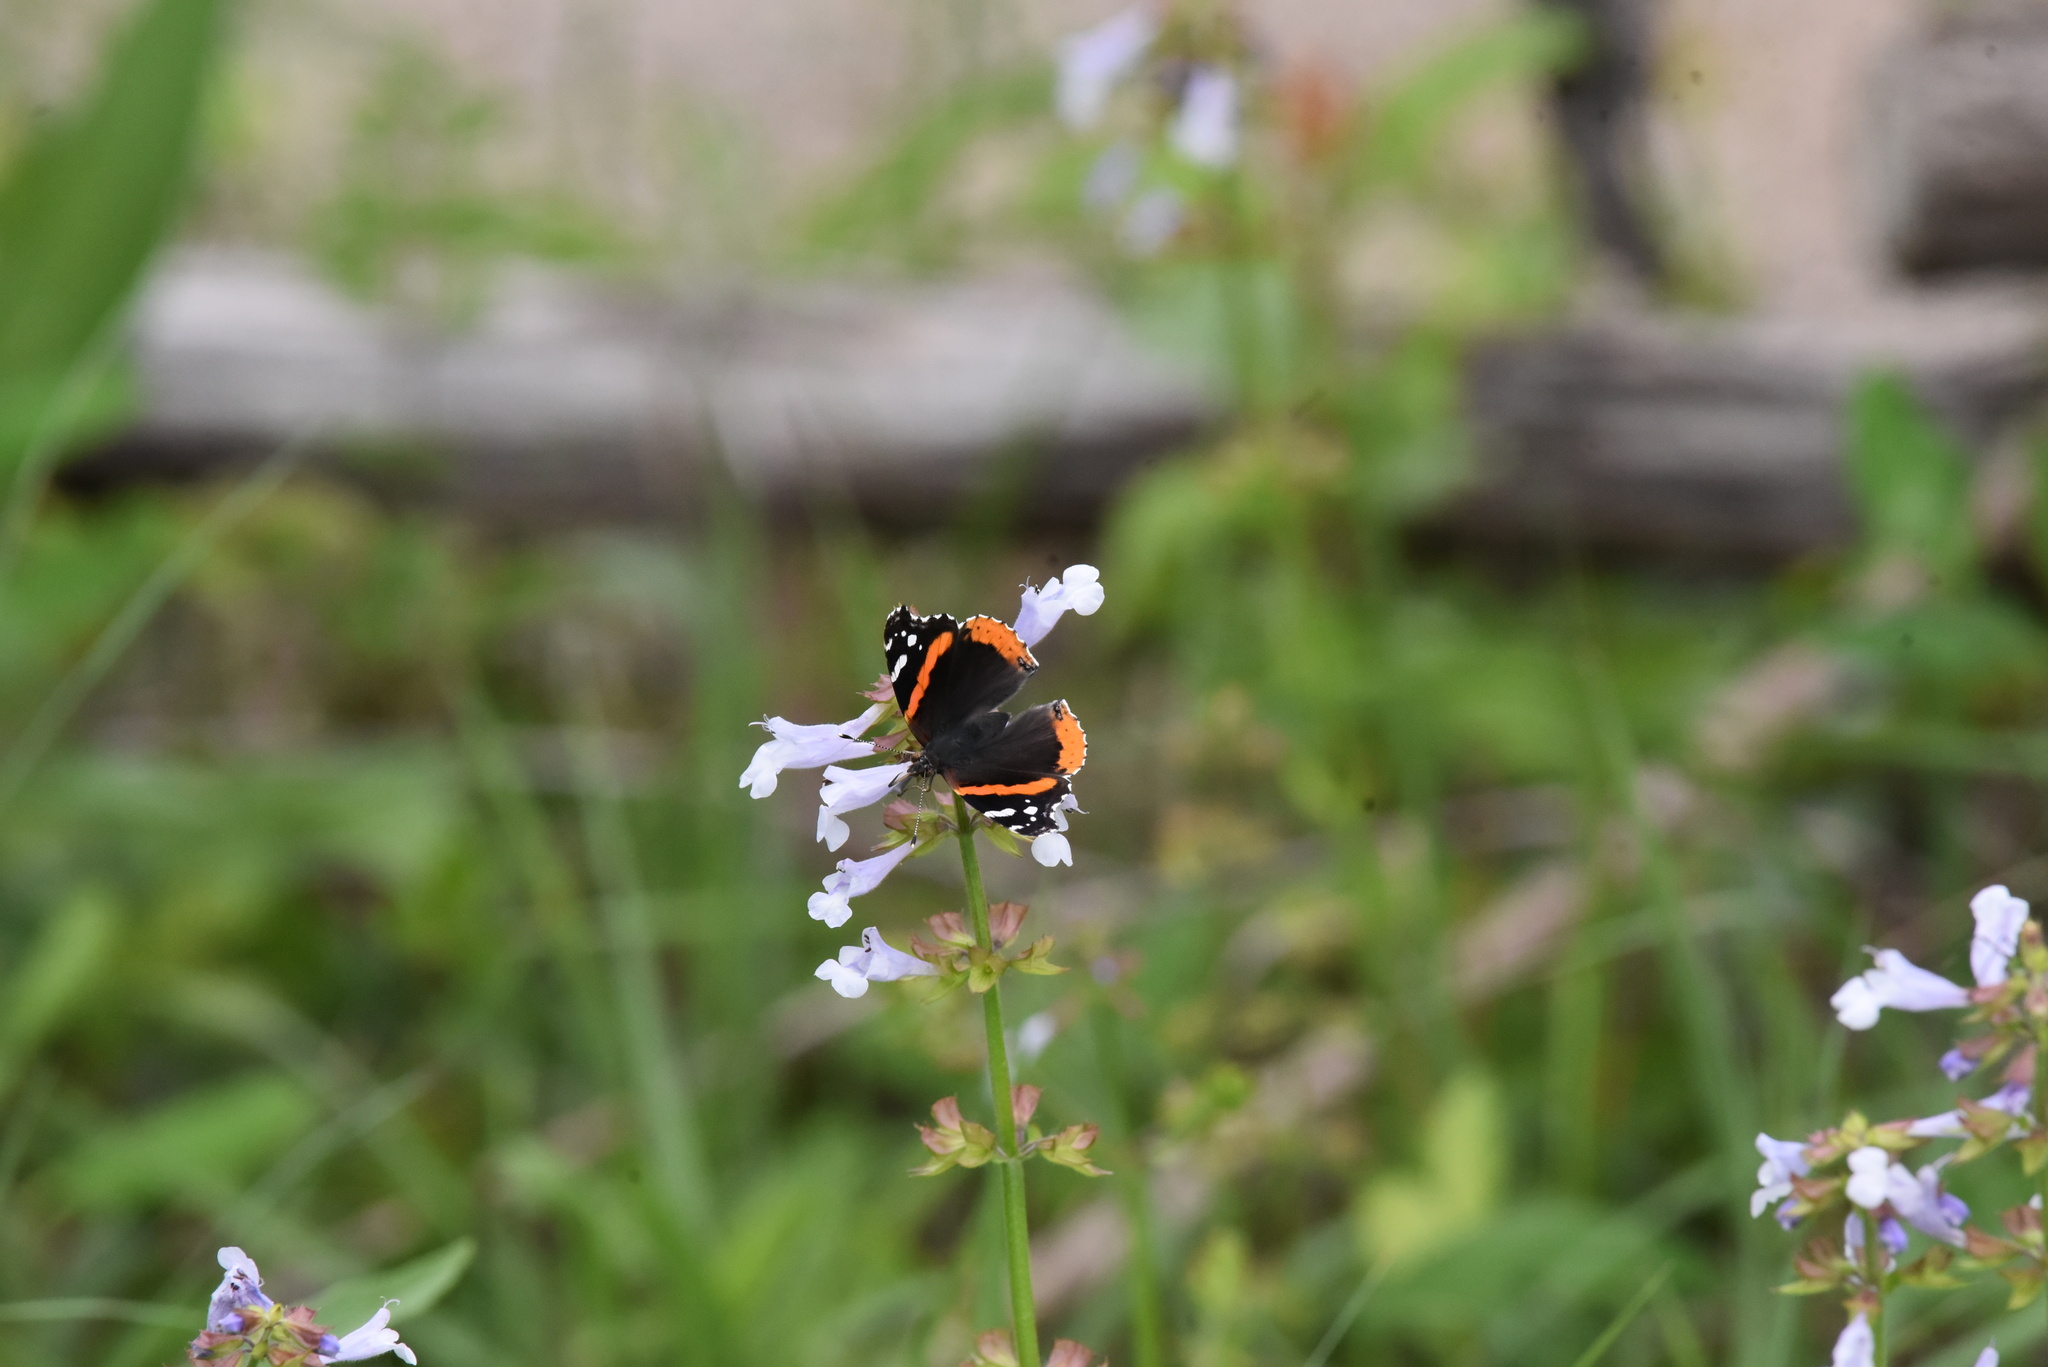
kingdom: Animalia
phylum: Arthropoda
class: Insecta
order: Lepidoptera
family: Nymphalidae
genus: Vanessa
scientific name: Vanessa atalanta
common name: Red admiral
